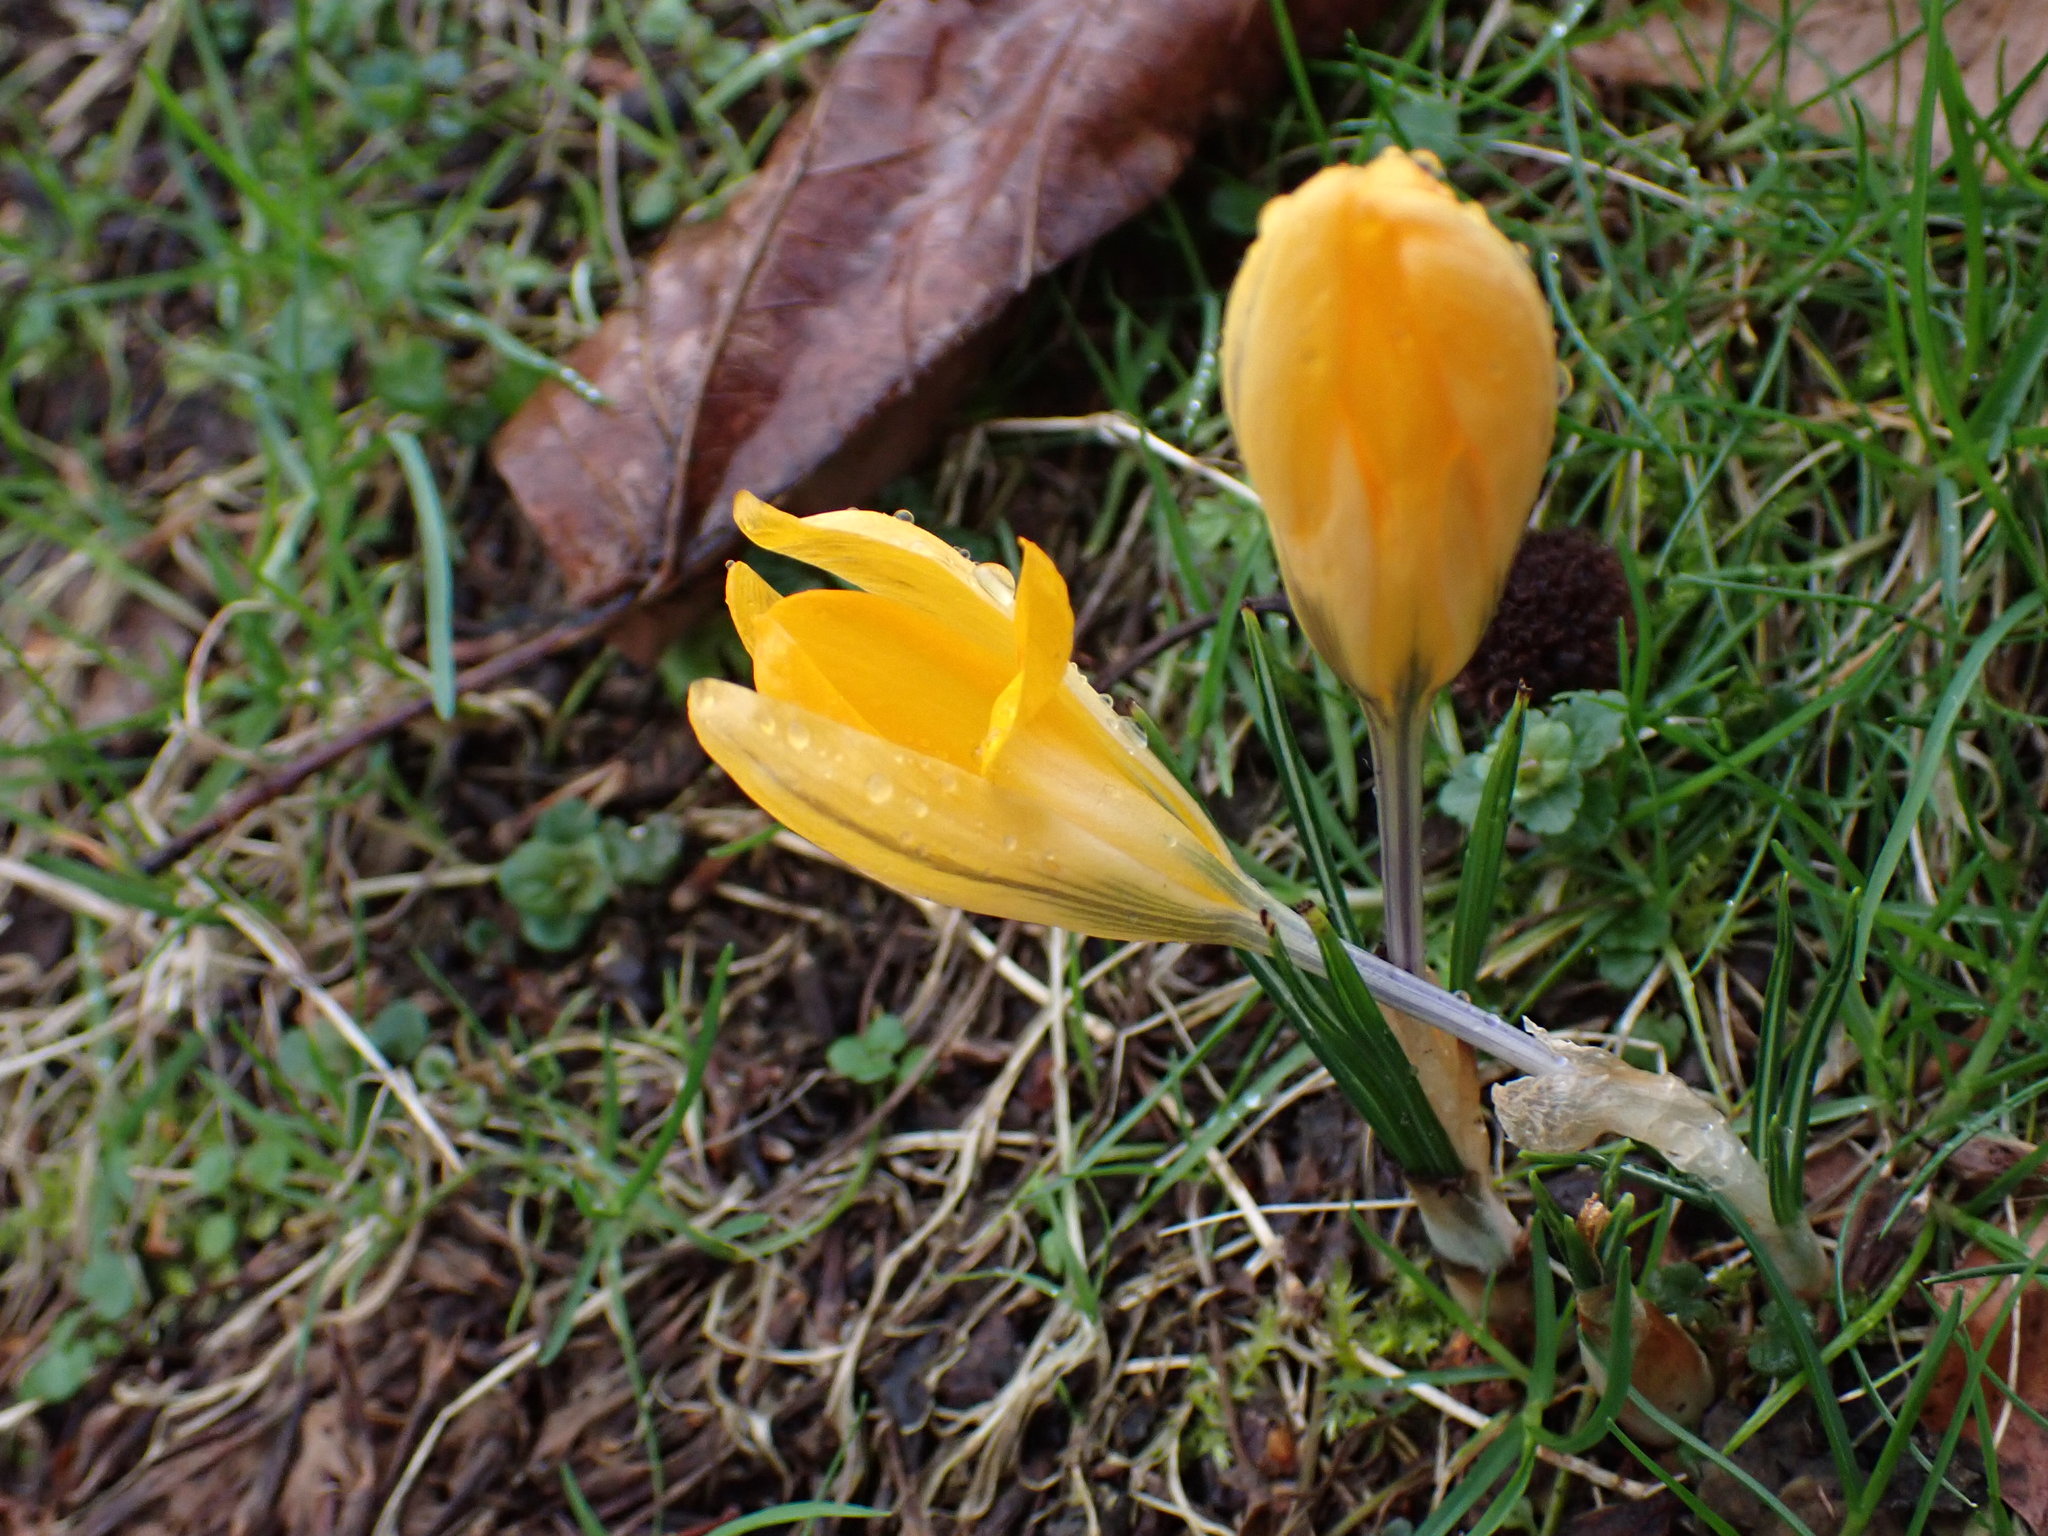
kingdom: Plantae
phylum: Tracheophyta
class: Liliopsida
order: Asparagales
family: Iridaceae
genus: Crocus
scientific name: Crocus luteus
